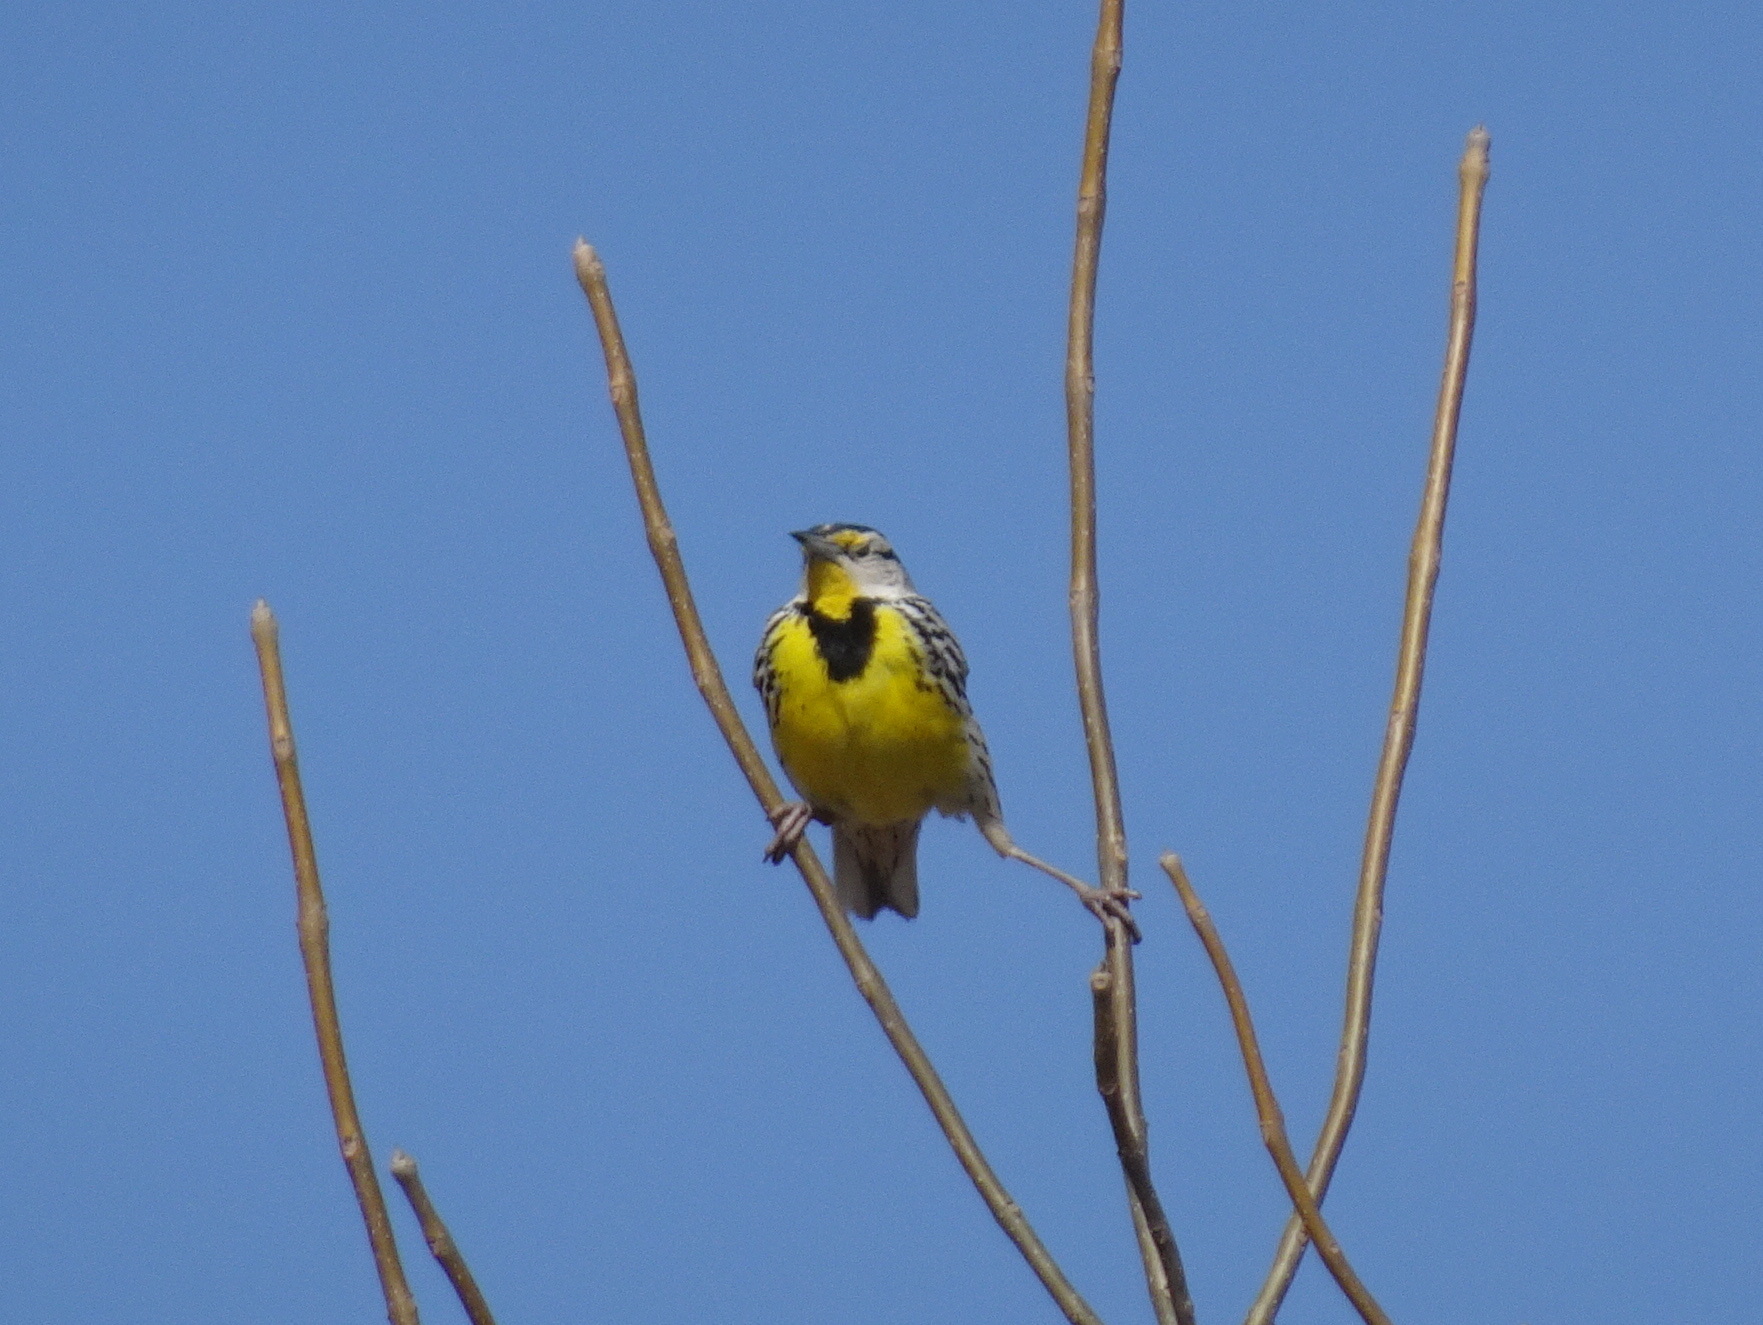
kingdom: Animalia
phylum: Chordata
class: Aves
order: Passeriformes
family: Icteridae
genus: Sturnella
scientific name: Sturnella magna
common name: Eastern meadowlark
